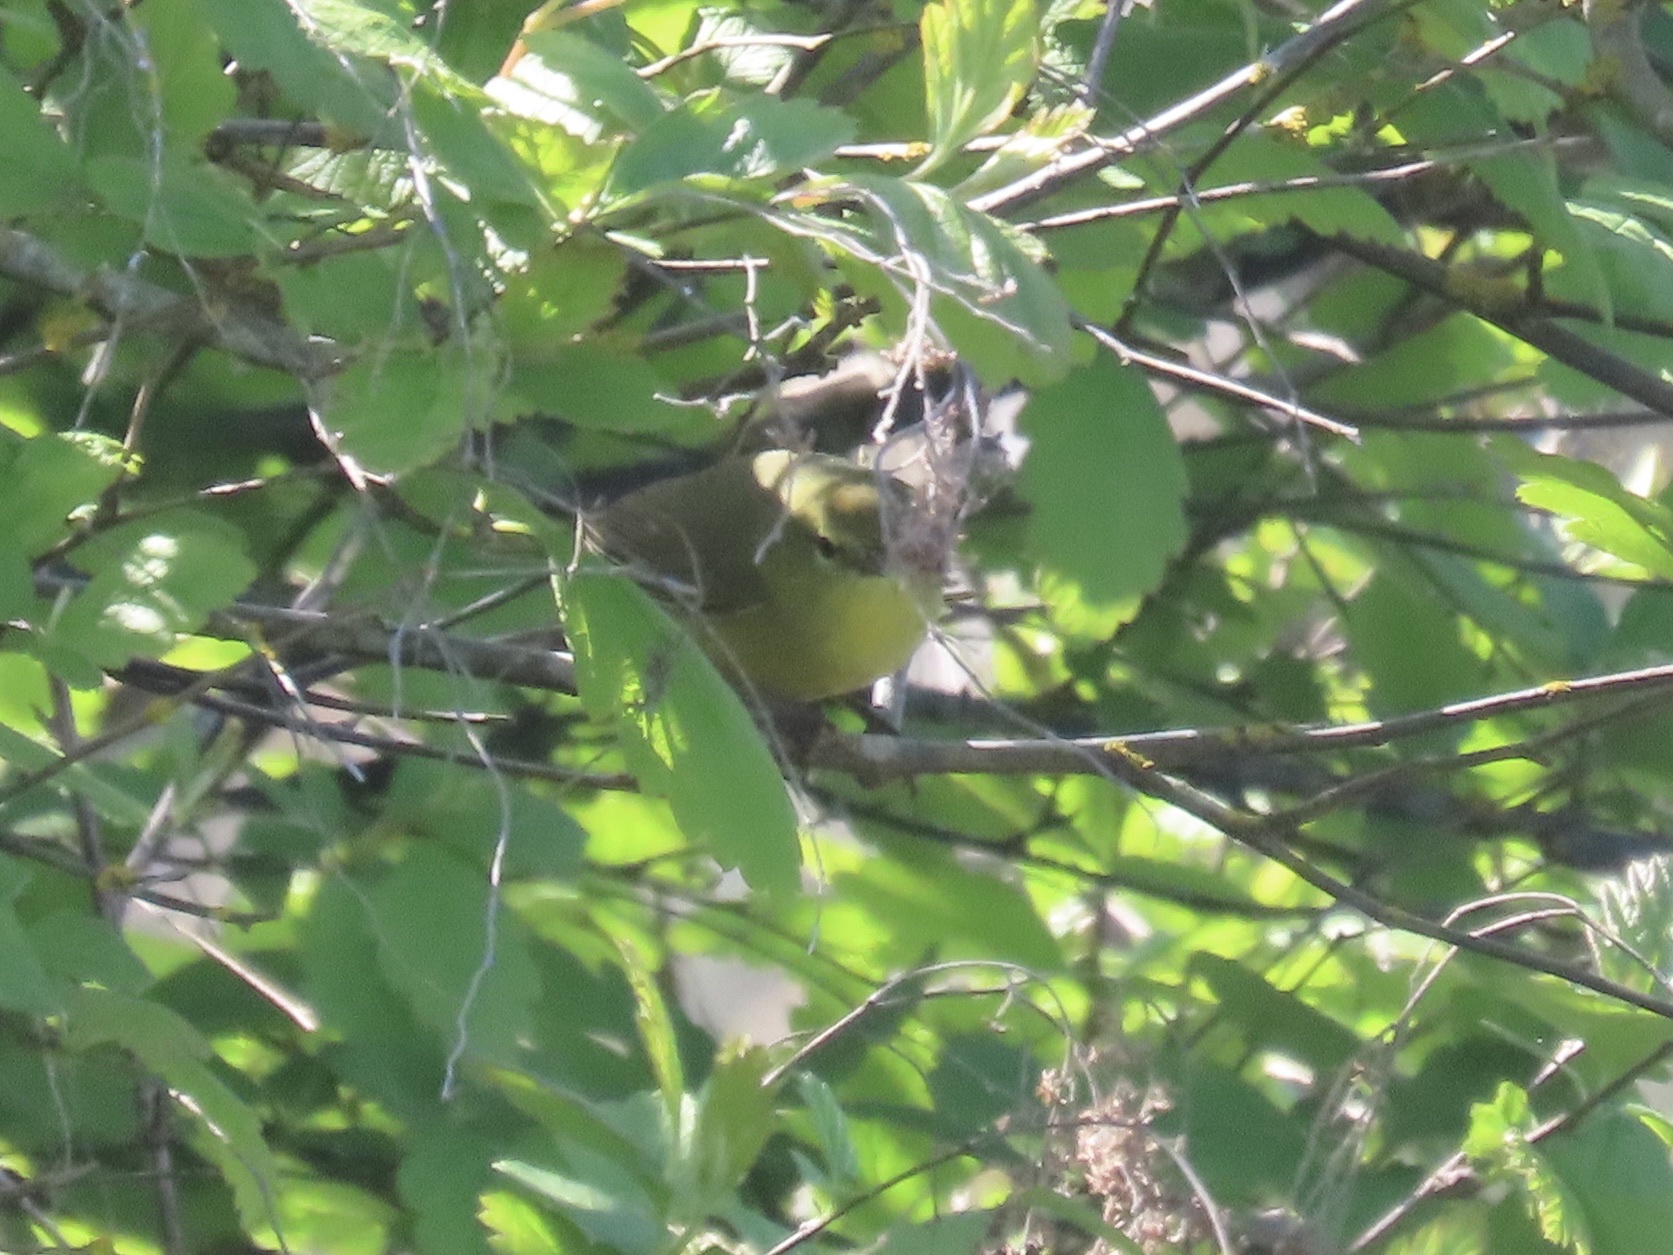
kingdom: Animalia
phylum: Chordata
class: Aves
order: Passeriformes
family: Parulidae
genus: Leiothlypis
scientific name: Leiothlypis celata
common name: Orange-crowned warbler
